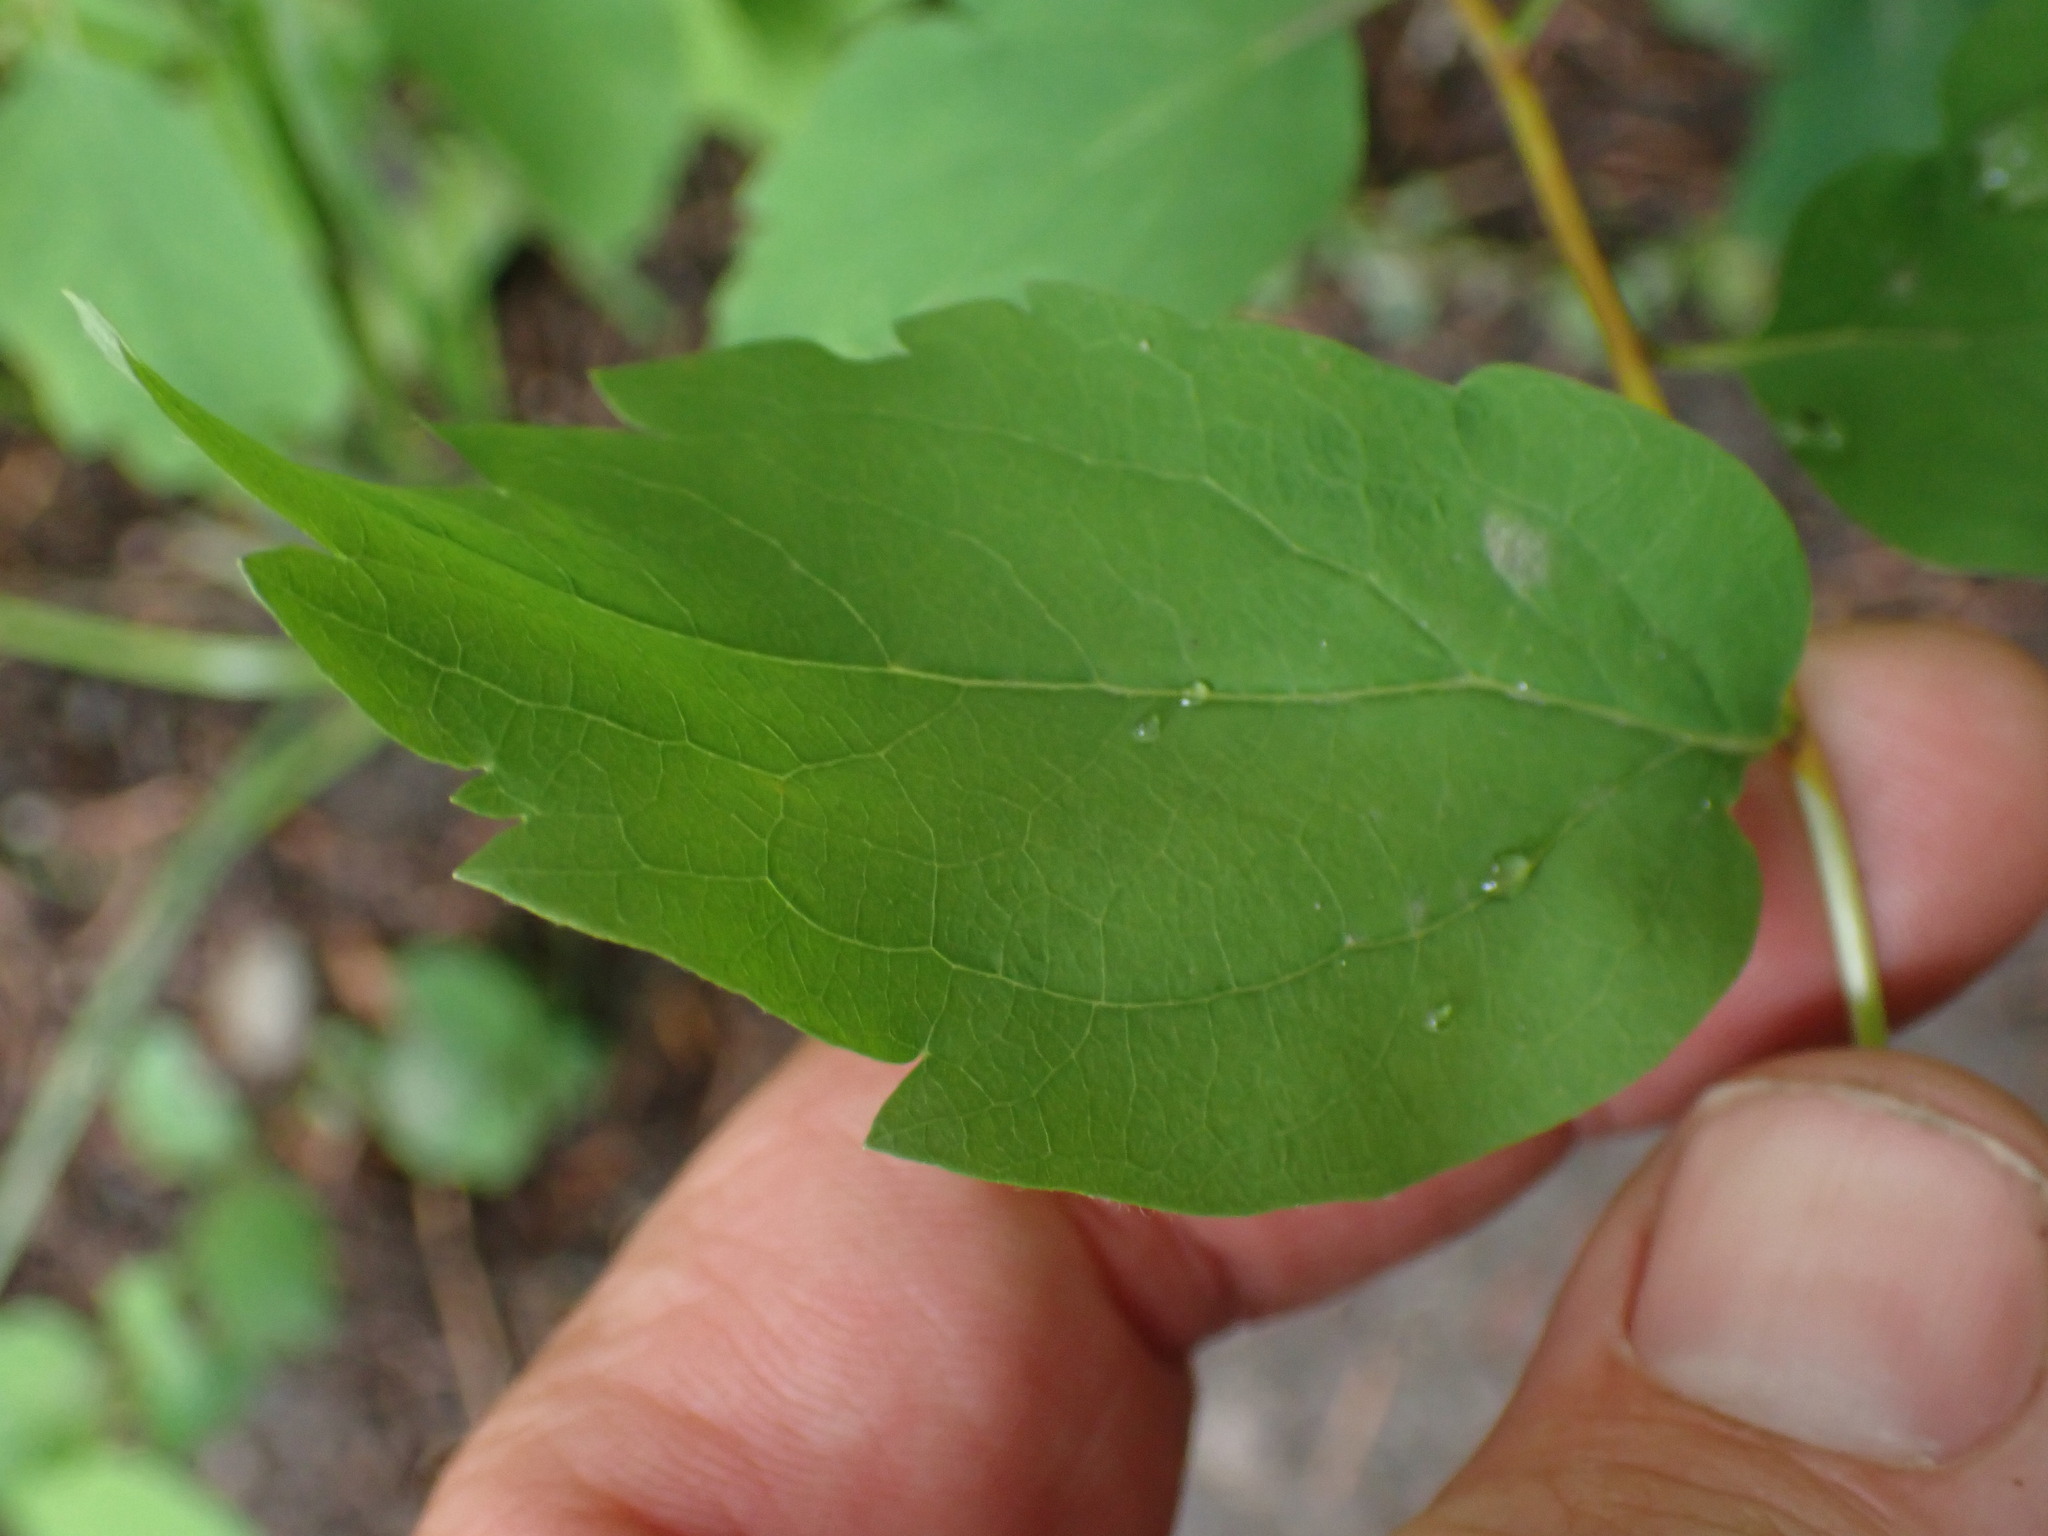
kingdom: Plantae
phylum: Tracheophyta
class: Magnoliopsida
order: Ranunculales
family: Ranunculaceae
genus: Clematis
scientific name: Clematis ligusticifolia
